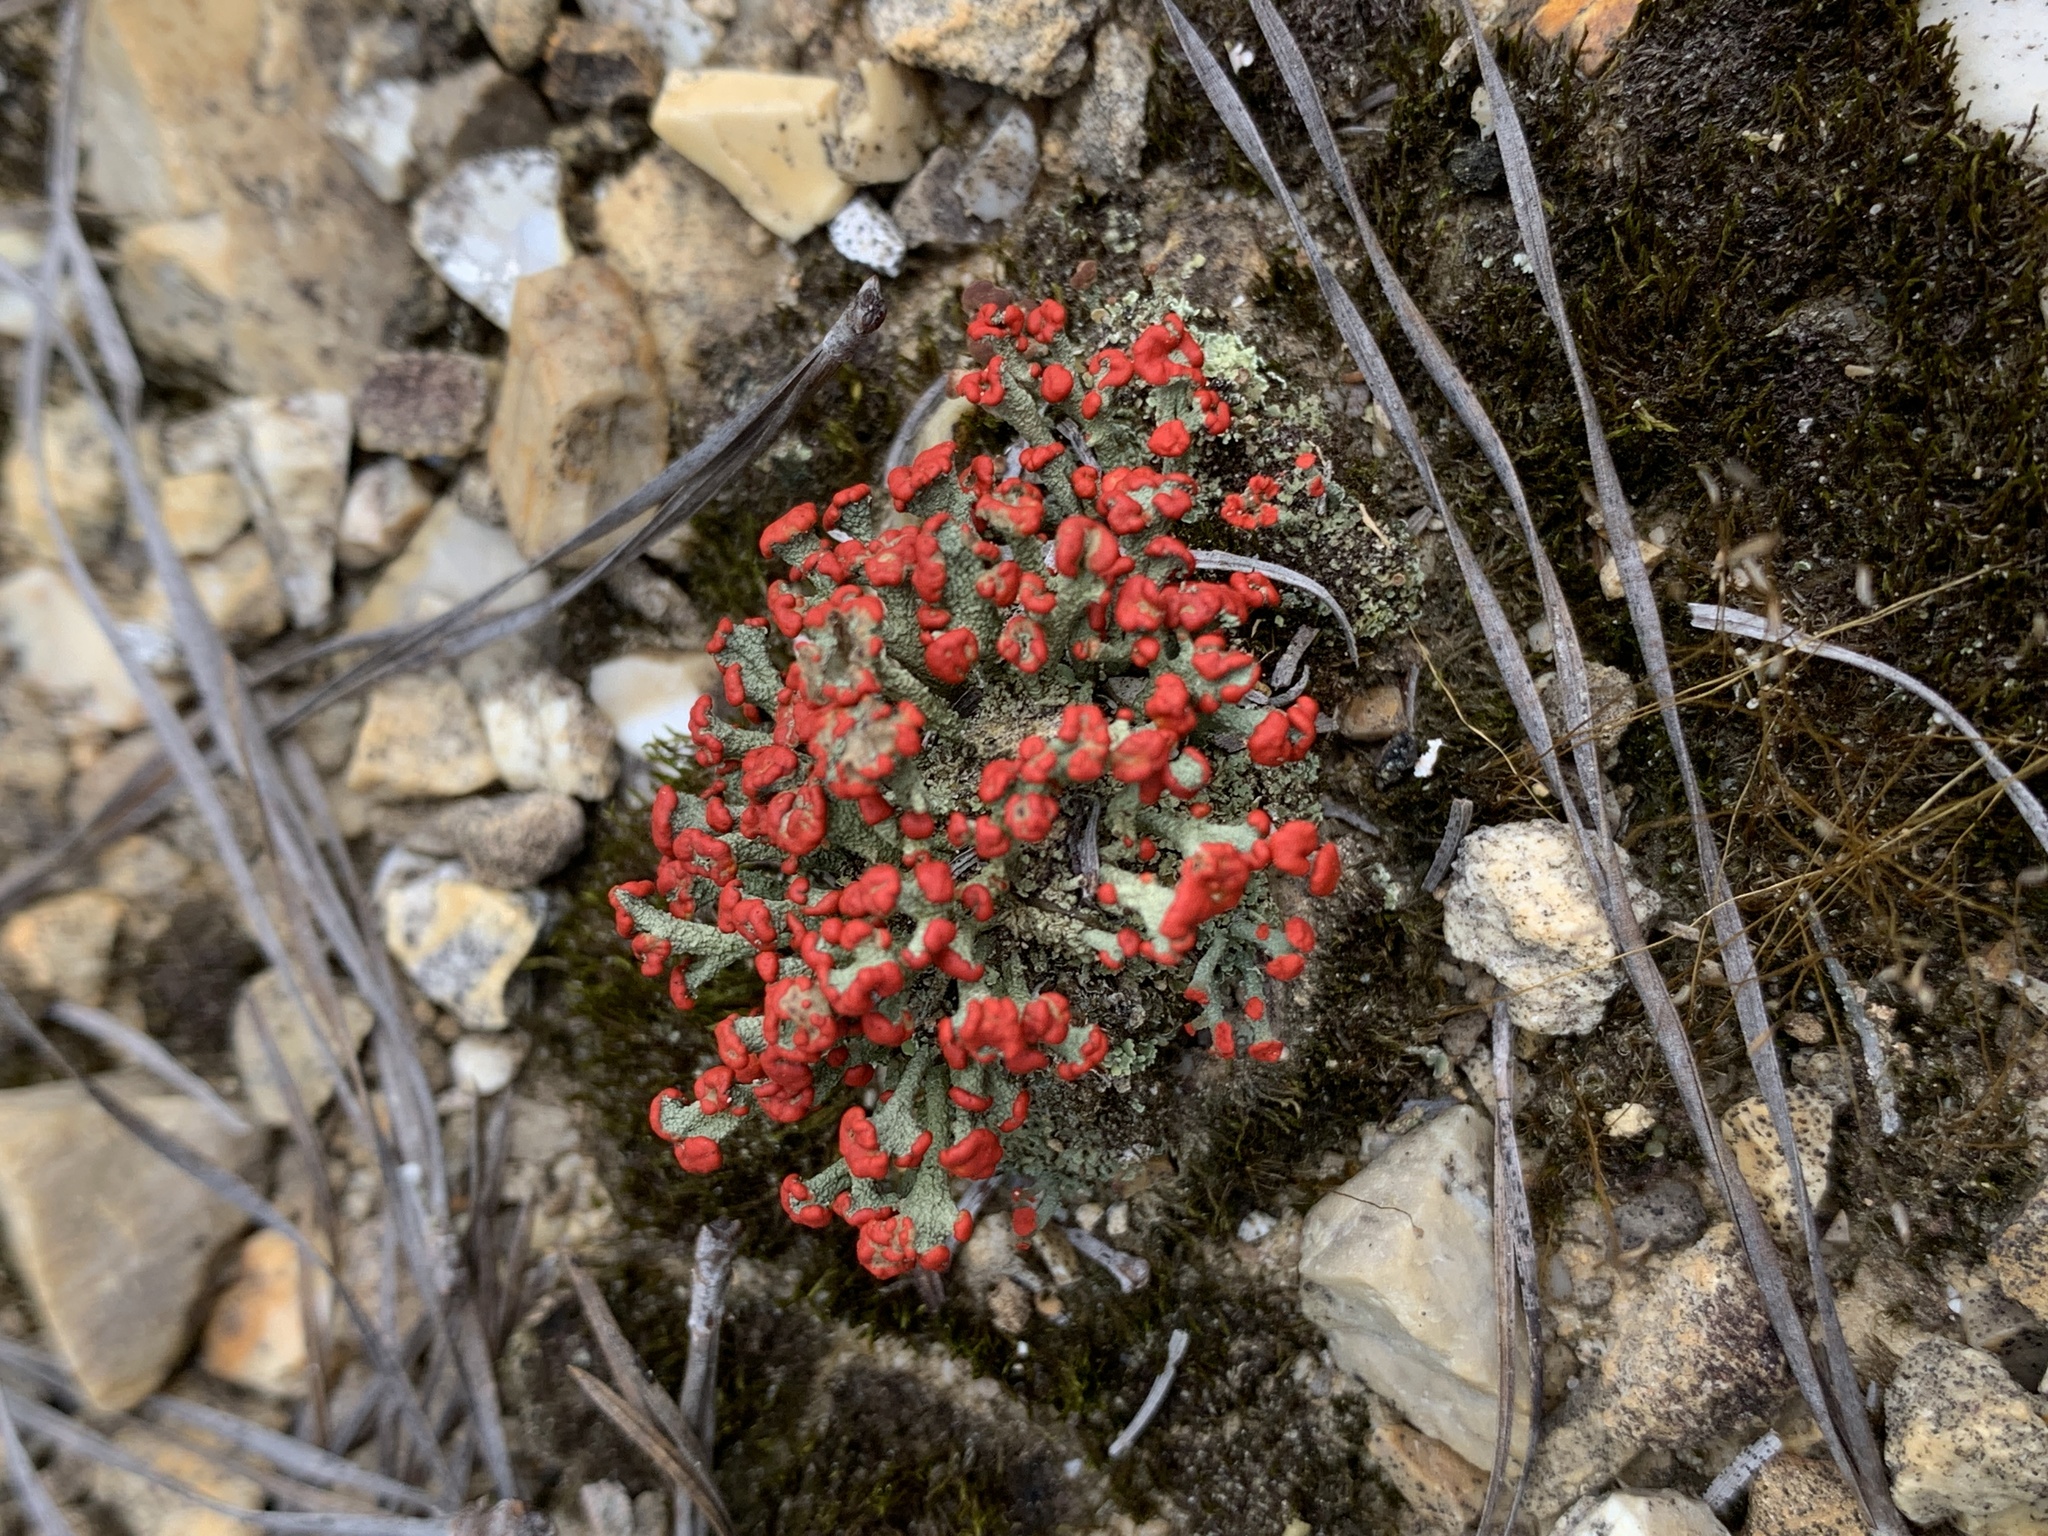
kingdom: Fungi
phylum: Ascomycota
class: Lecanoromycetes
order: Lecanorales
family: Cladoniaceae
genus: Cladonia
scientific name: Cladonia floerkeana
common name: Gritty british soldiers lichen
